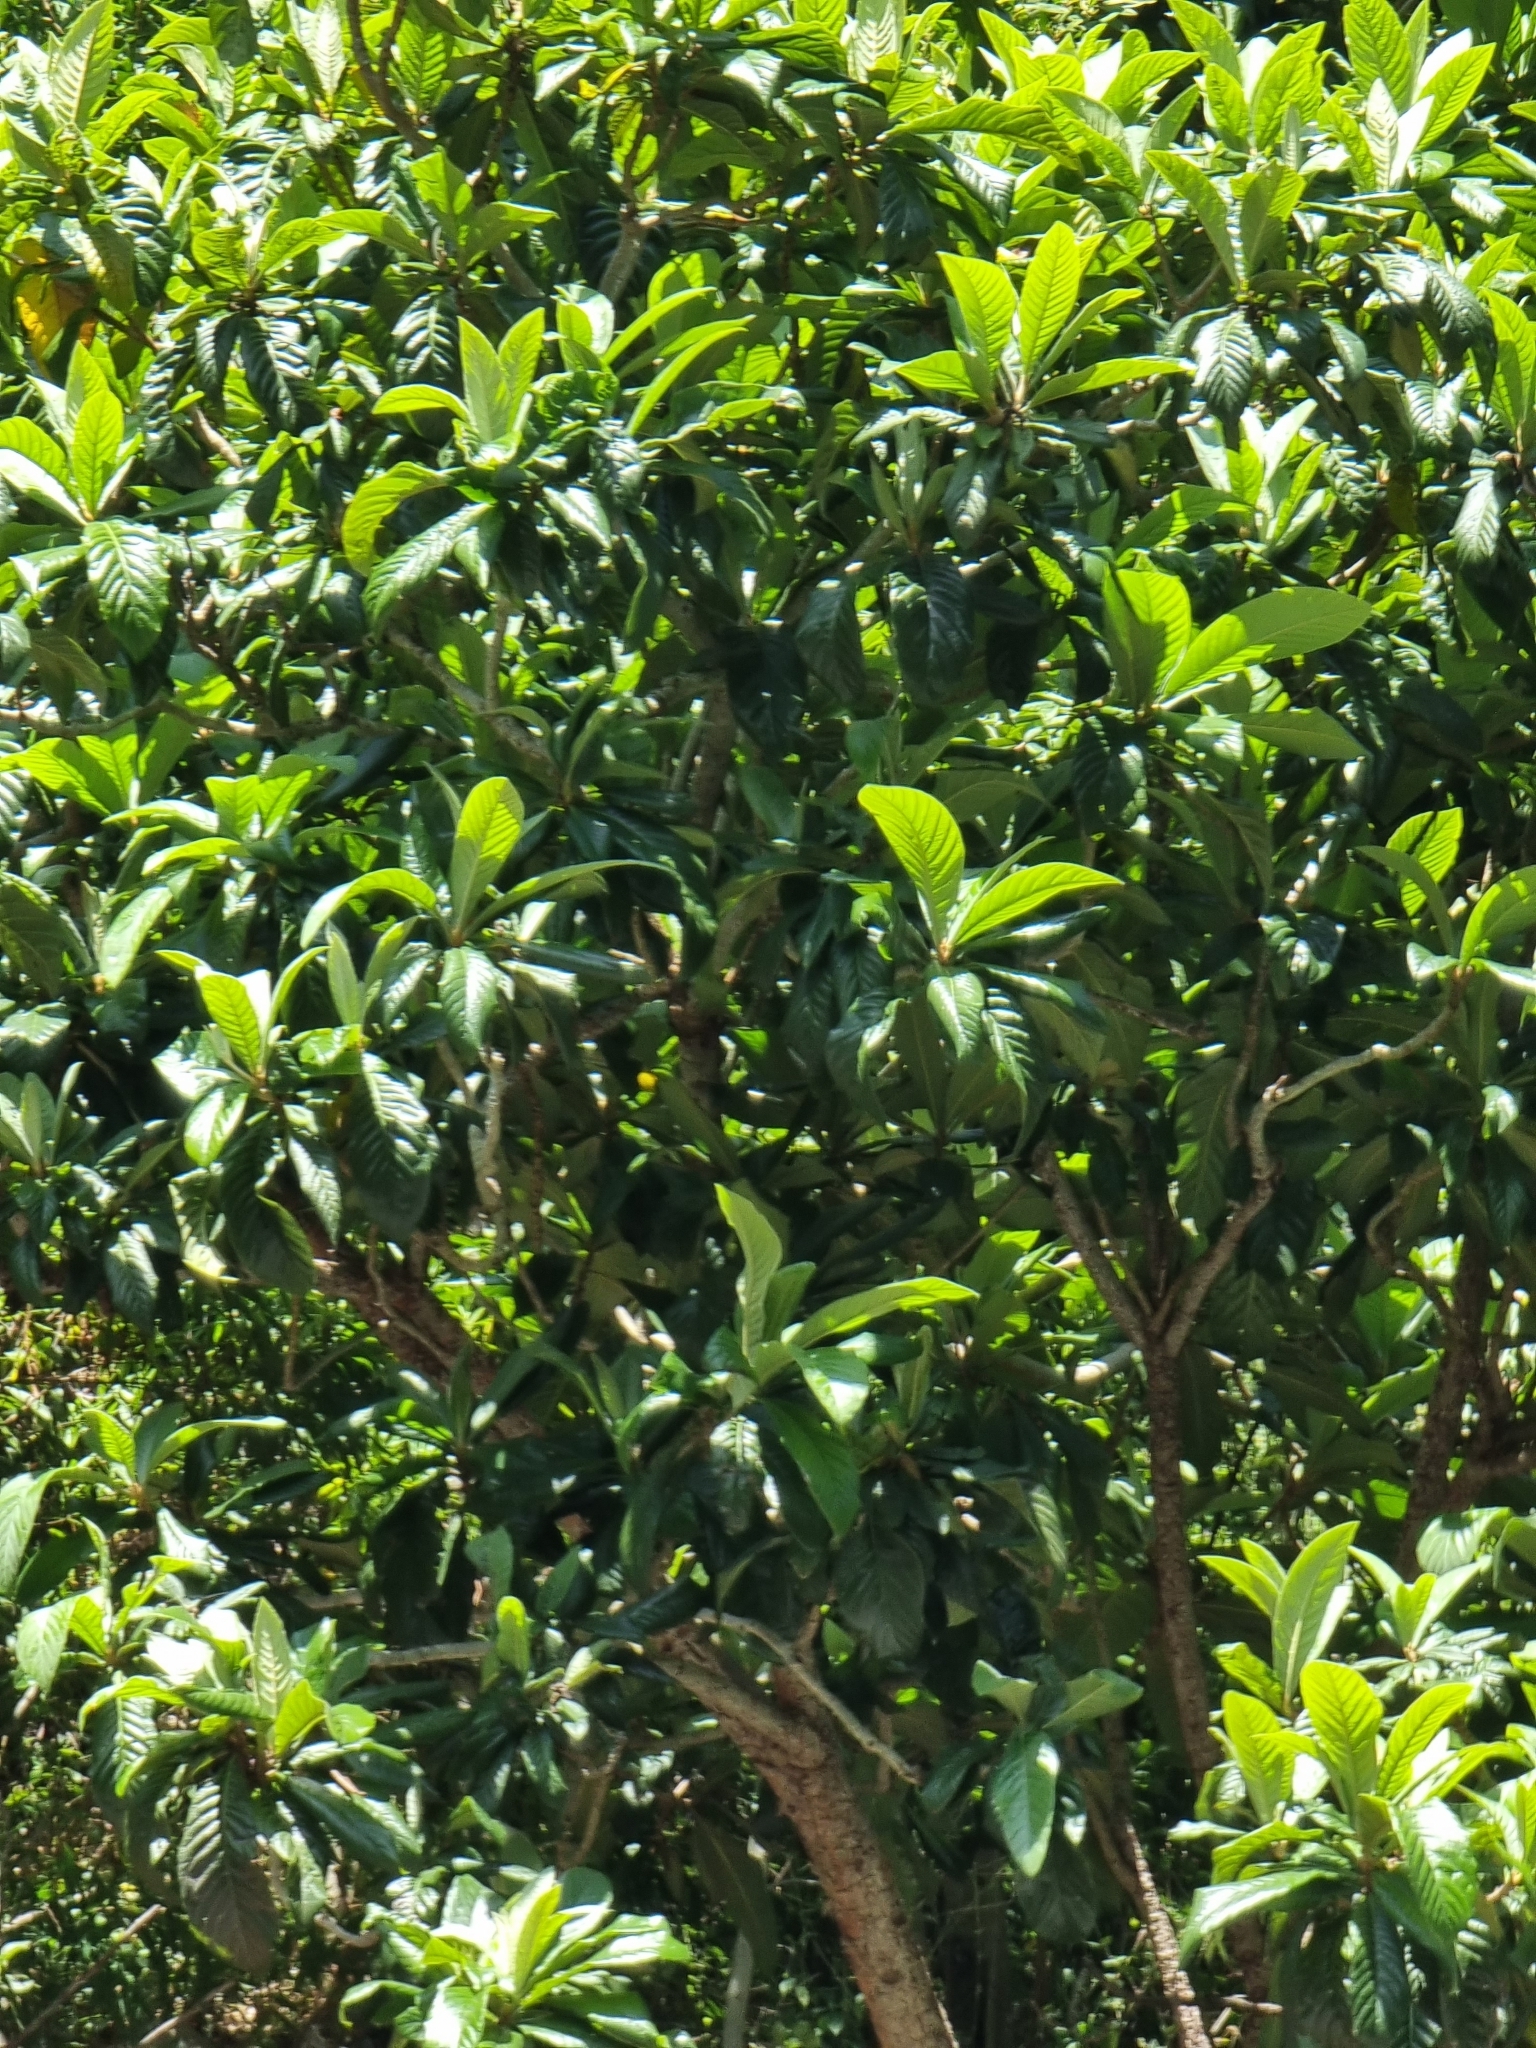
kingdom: Plantae
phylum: Tracheophyta
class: Magnoliopsida
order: Rosales
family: Rosaceae
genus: Rhaphiolepis
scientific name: Rhaphiolepis bibas
